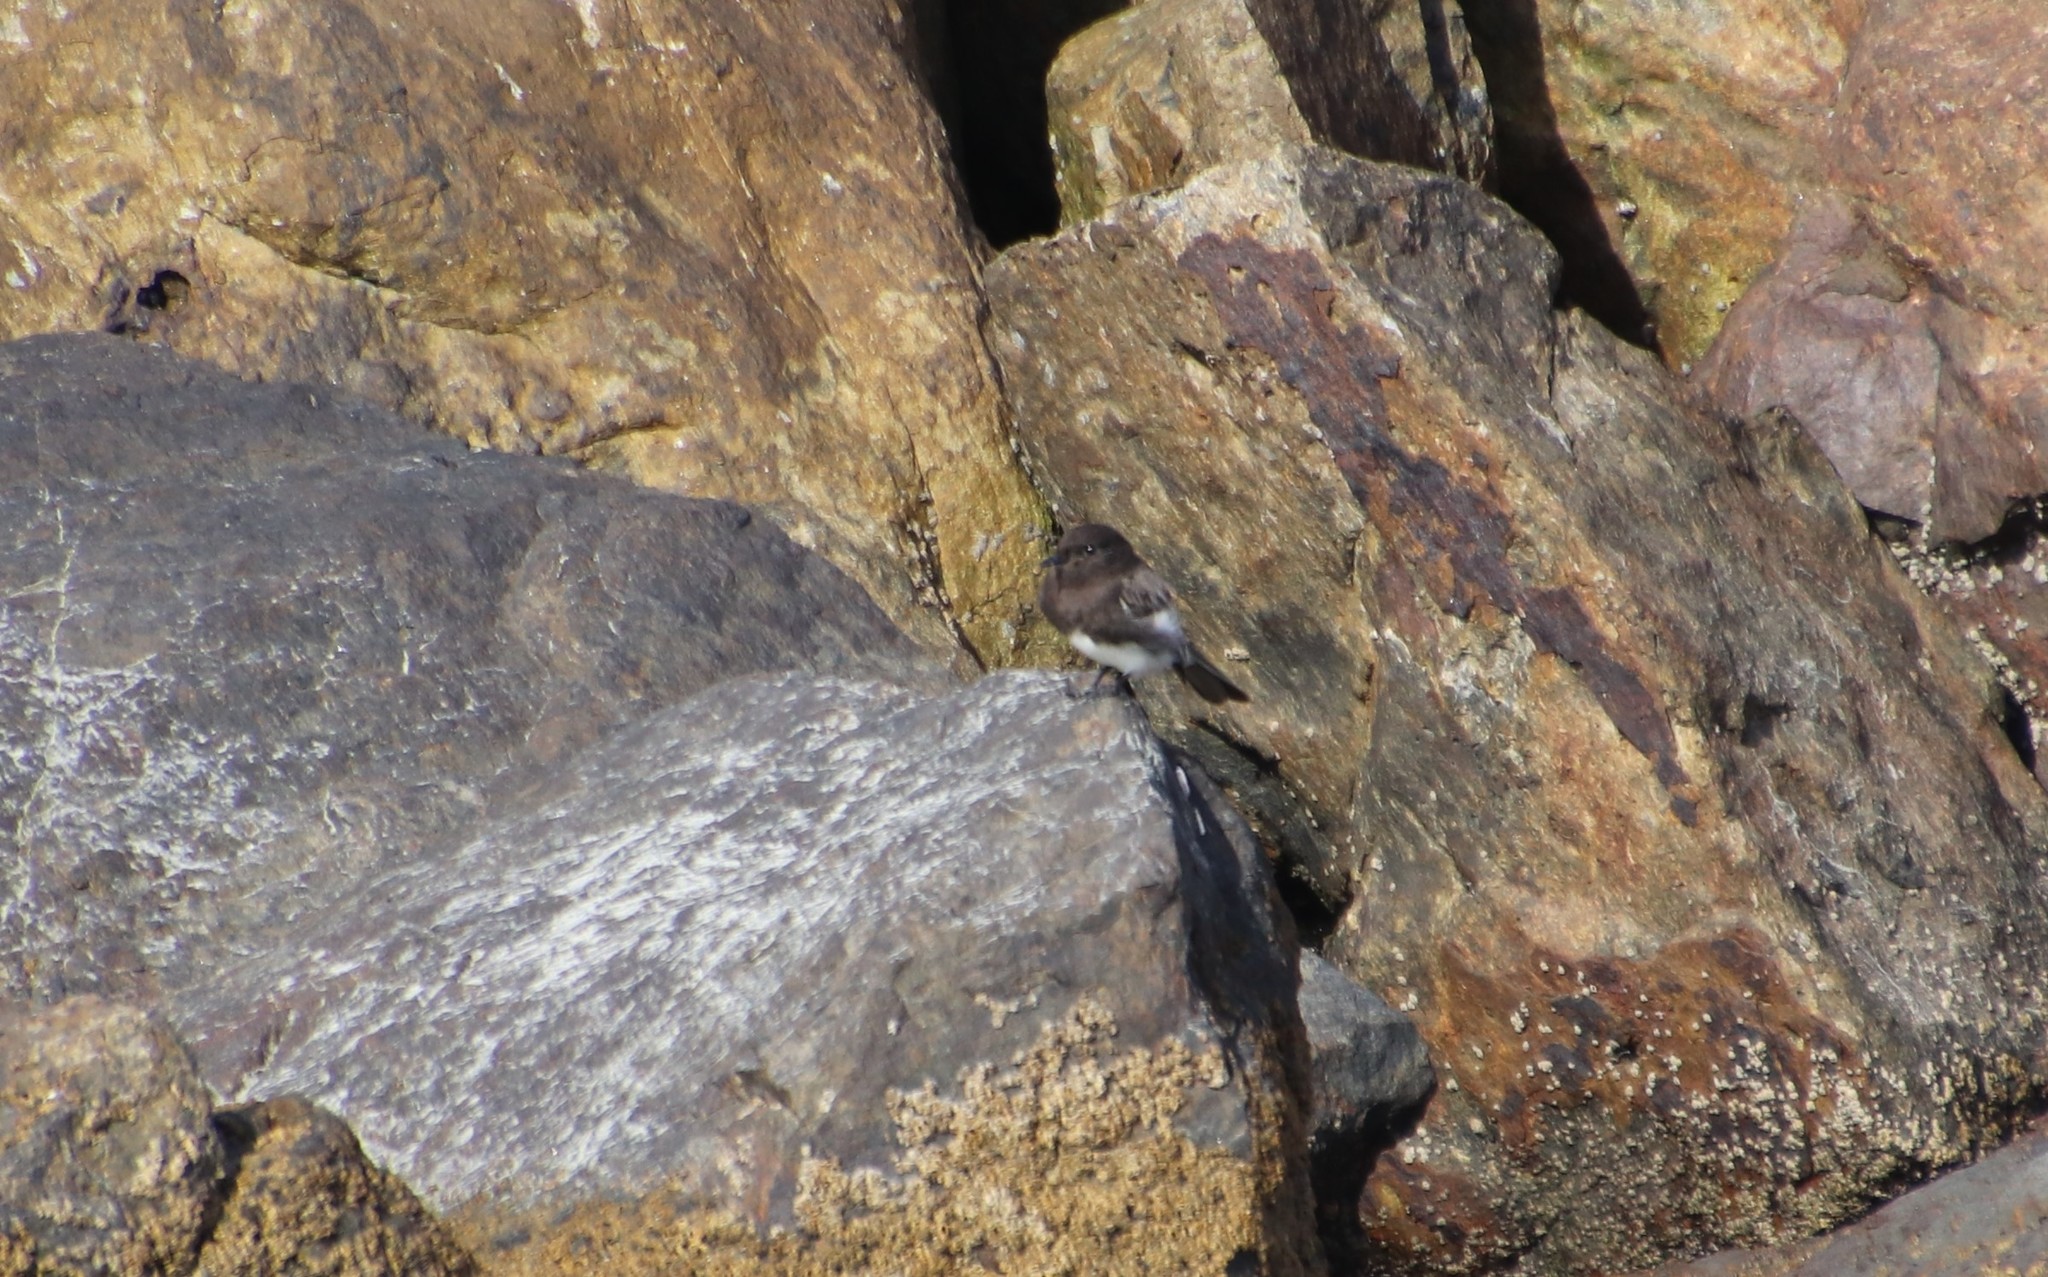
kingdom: Animalia
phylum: Chordata
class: Aves
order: Passeriformes
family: Tyrannidae
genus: Sayornis
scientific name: Sayornis nigricans
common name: Black phoebe
